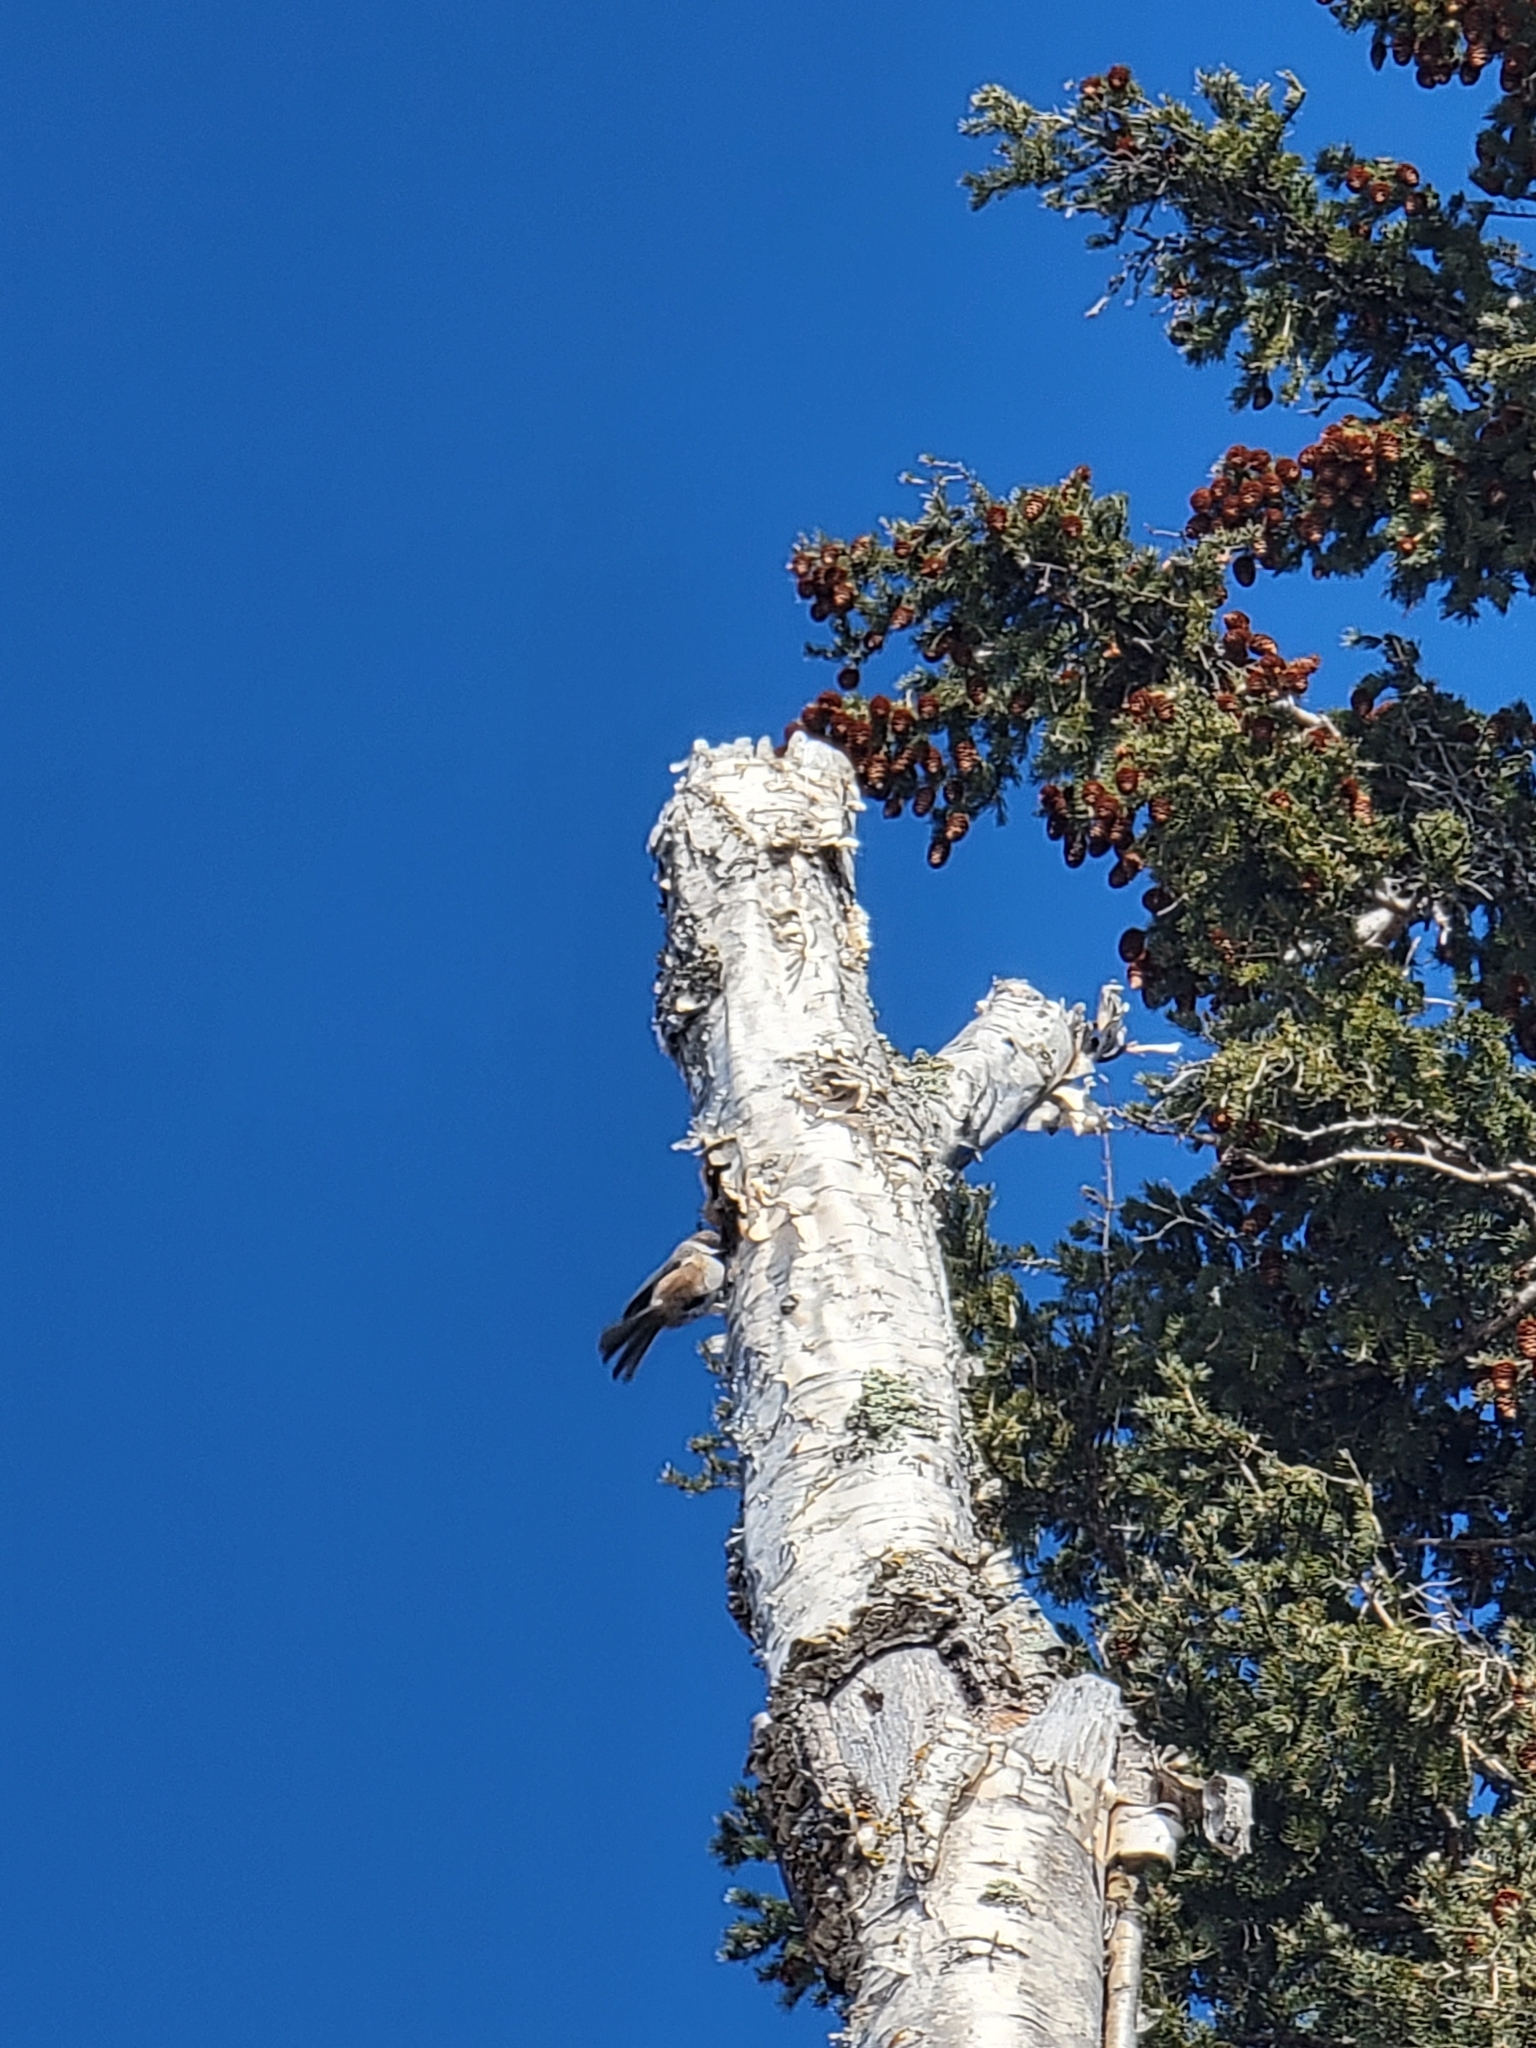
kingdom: Animalia
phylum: Chordata
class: Aves
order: Passeriformes
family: Paridae
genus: Poecile
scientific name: Poecile hudsonicus
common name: Boreal chickadee
